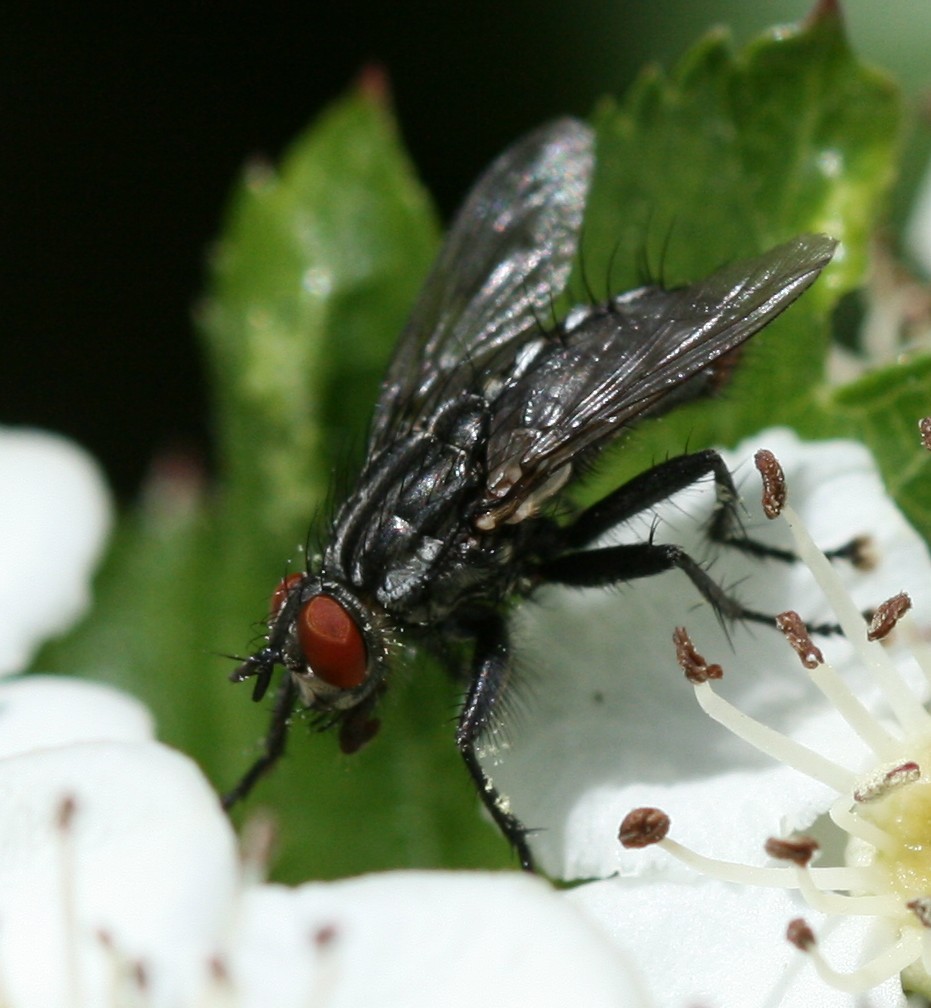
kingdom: Animalia
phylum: Arthropoda
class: Insecta
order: Diptera
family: Sarcophagidae
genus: Heteronychia
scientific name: Heteronychia
